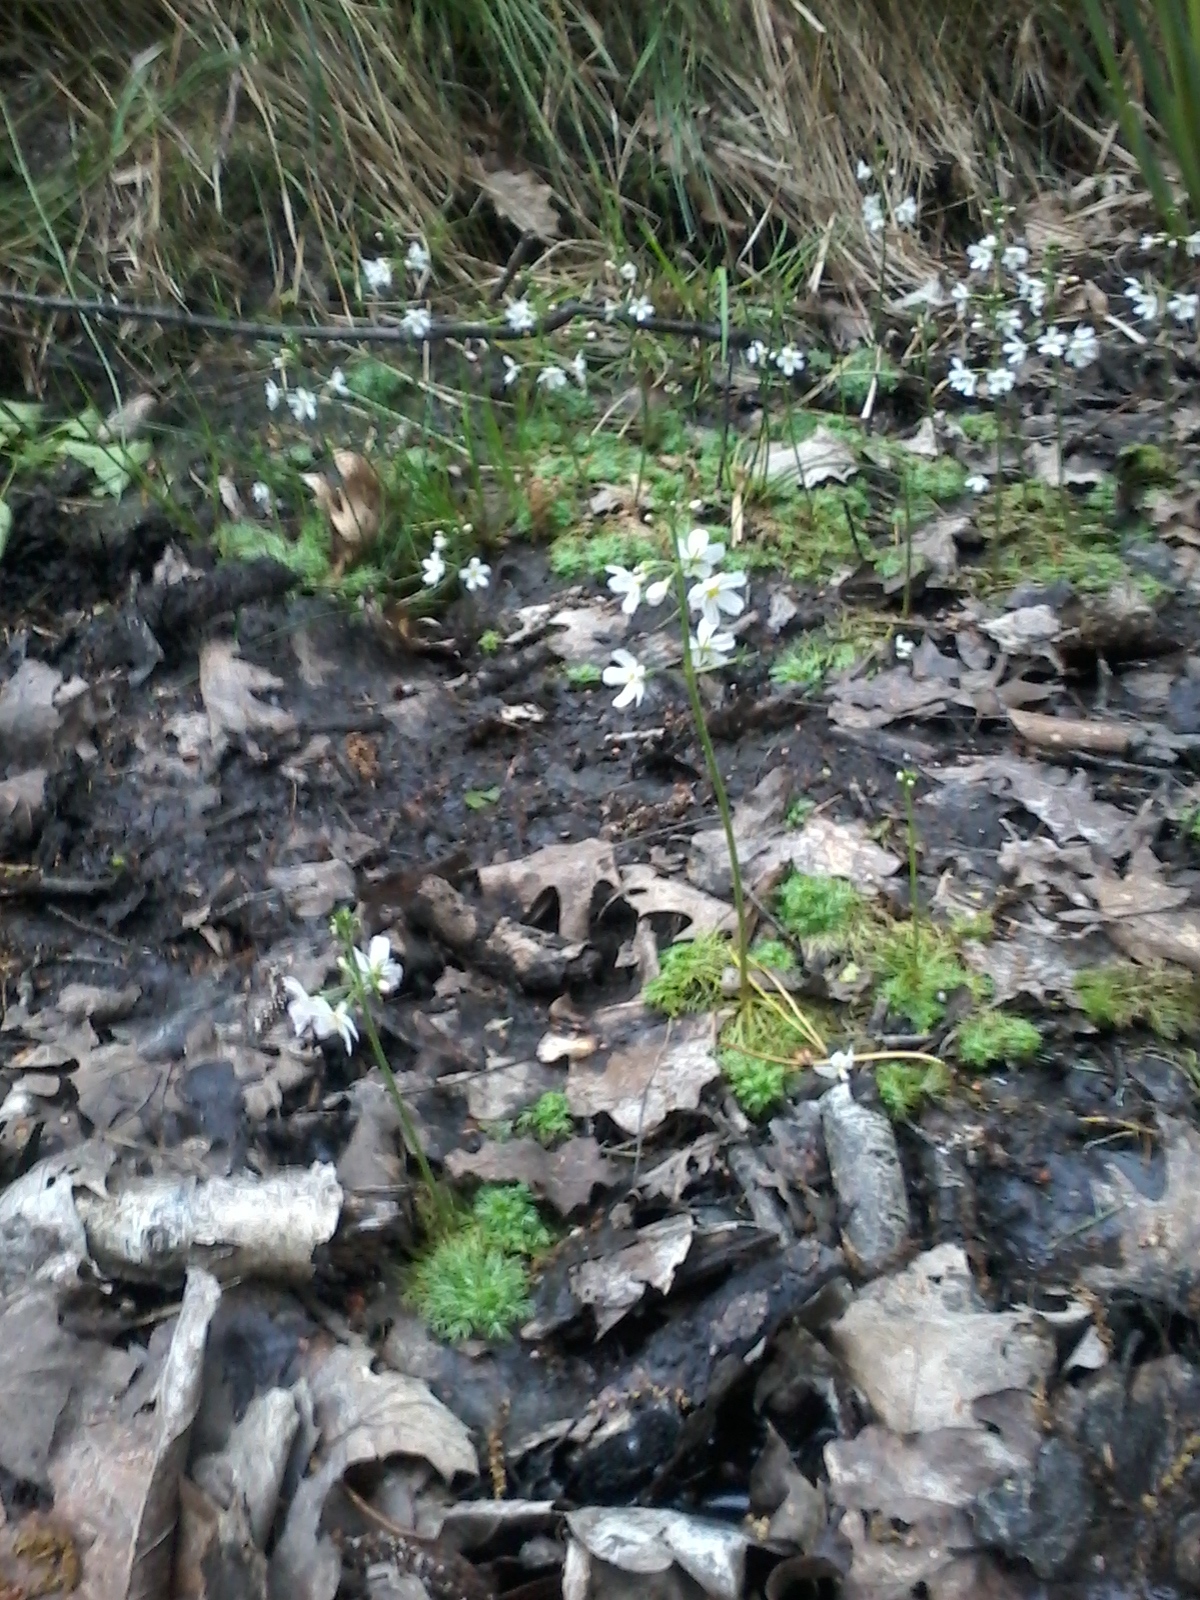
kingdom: Plantae
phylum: Tracheophyta
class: Magnoliopsida
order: Ericales
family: Primulaceae
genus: Hottonia
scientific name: Hottonia palustris
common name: Water-violet
